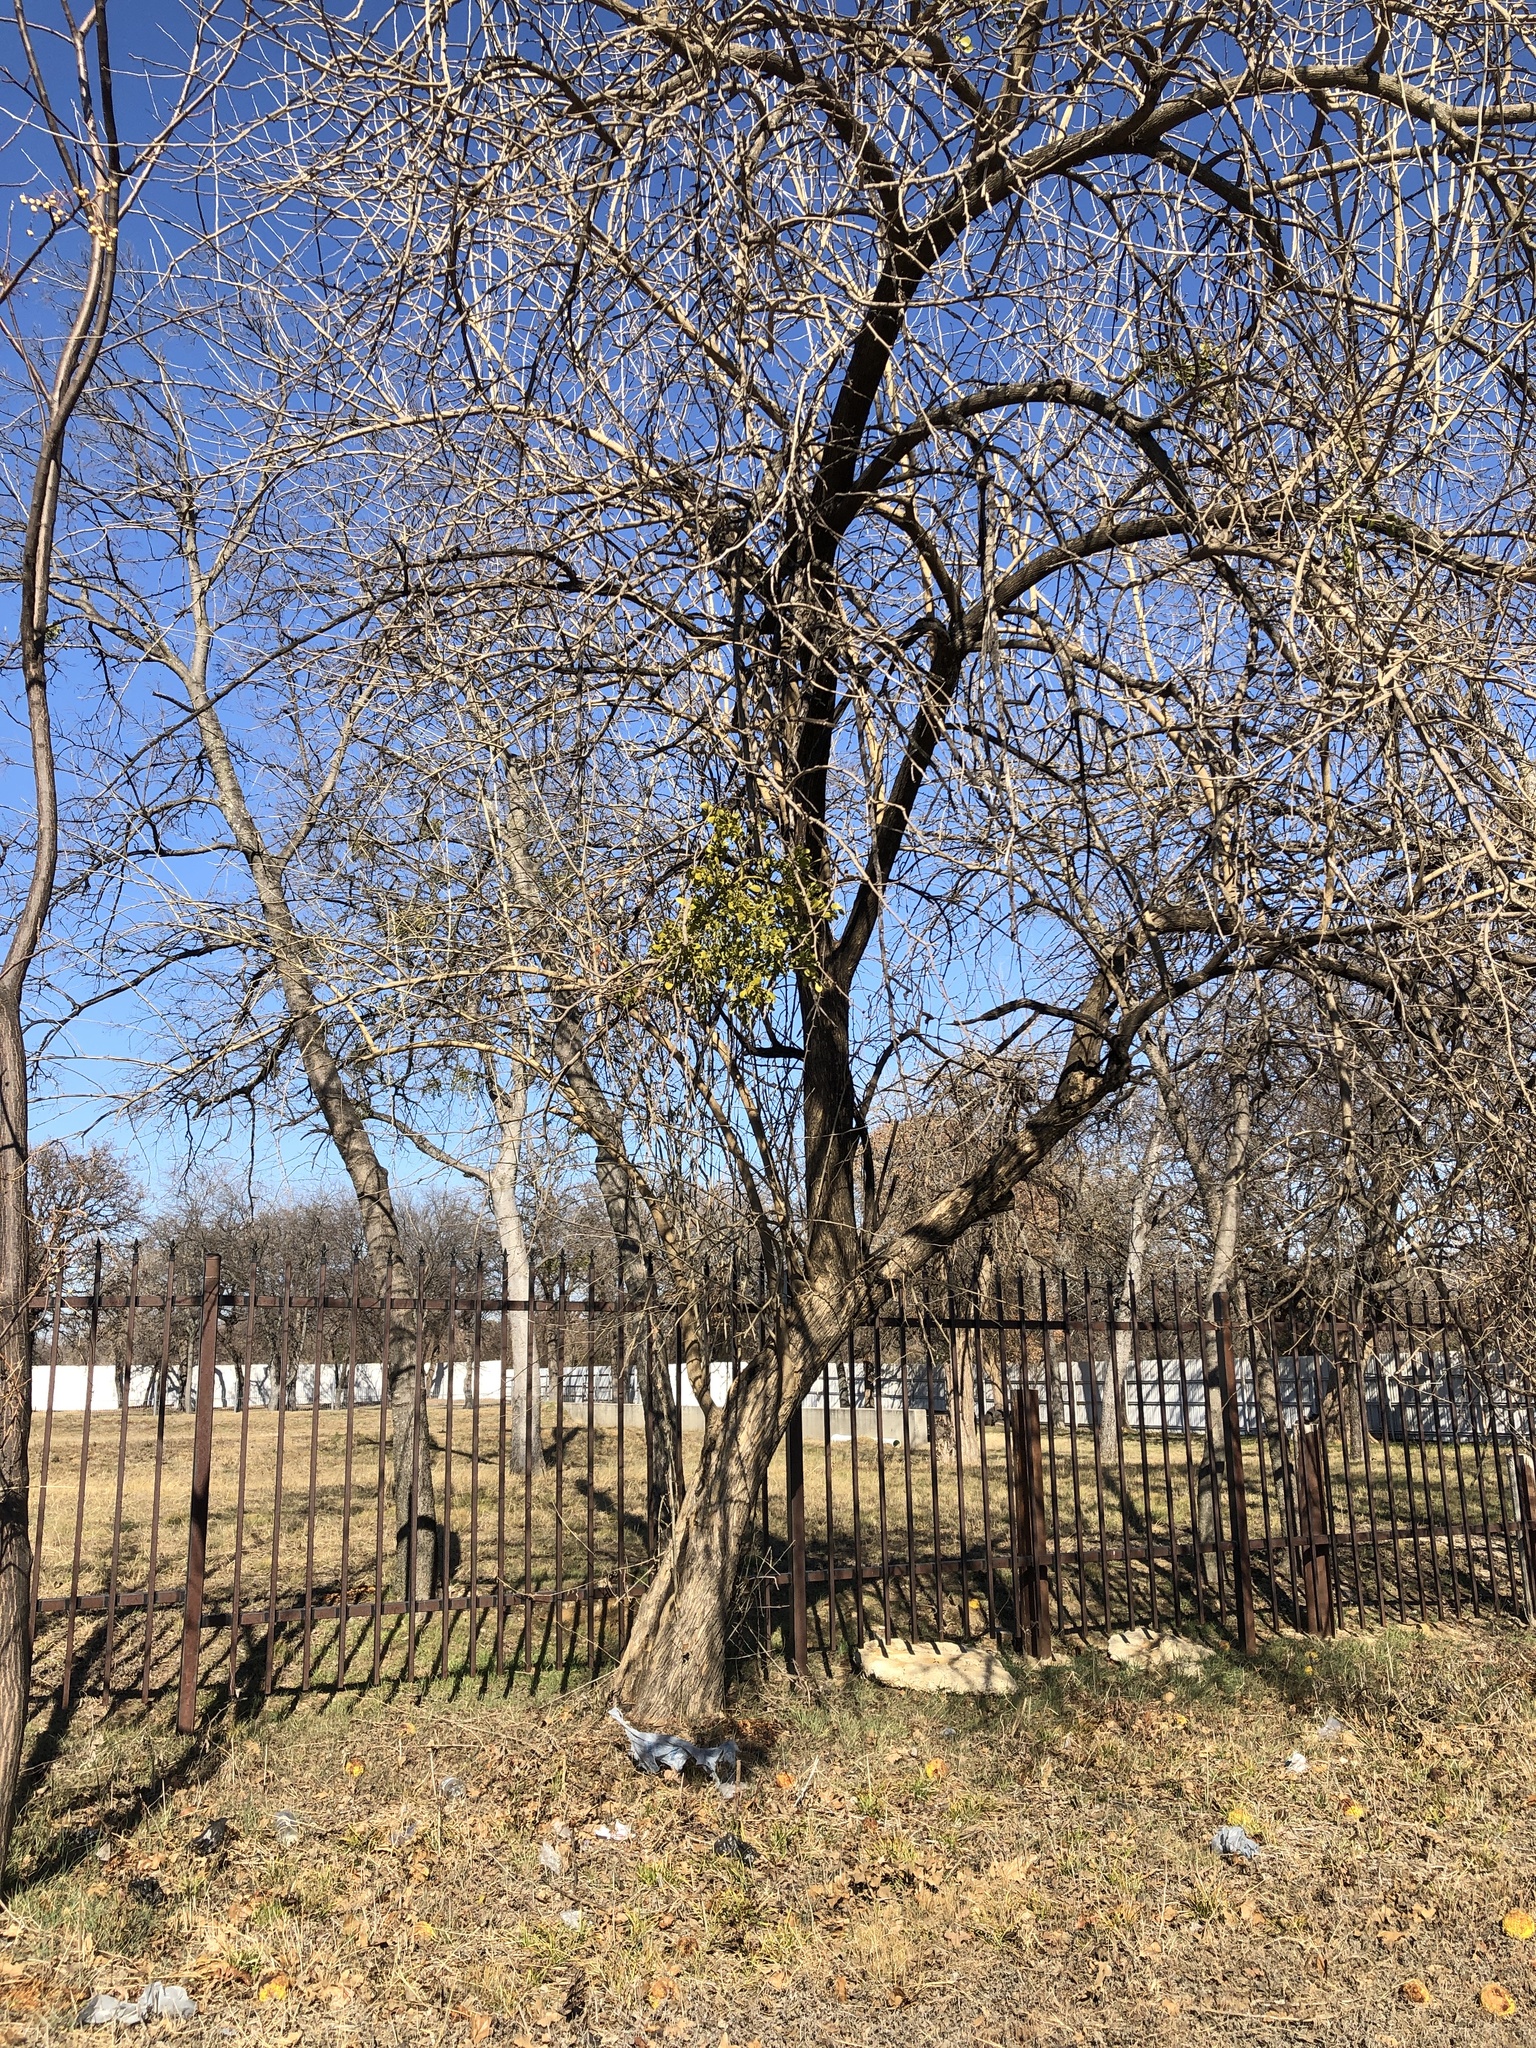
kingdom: Plantae
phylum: Tracheophyta
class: Magnoliopsida
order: Rosales
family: Moraceae
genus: Maclura
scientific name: Maclura pomifera
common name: Osage-orange
